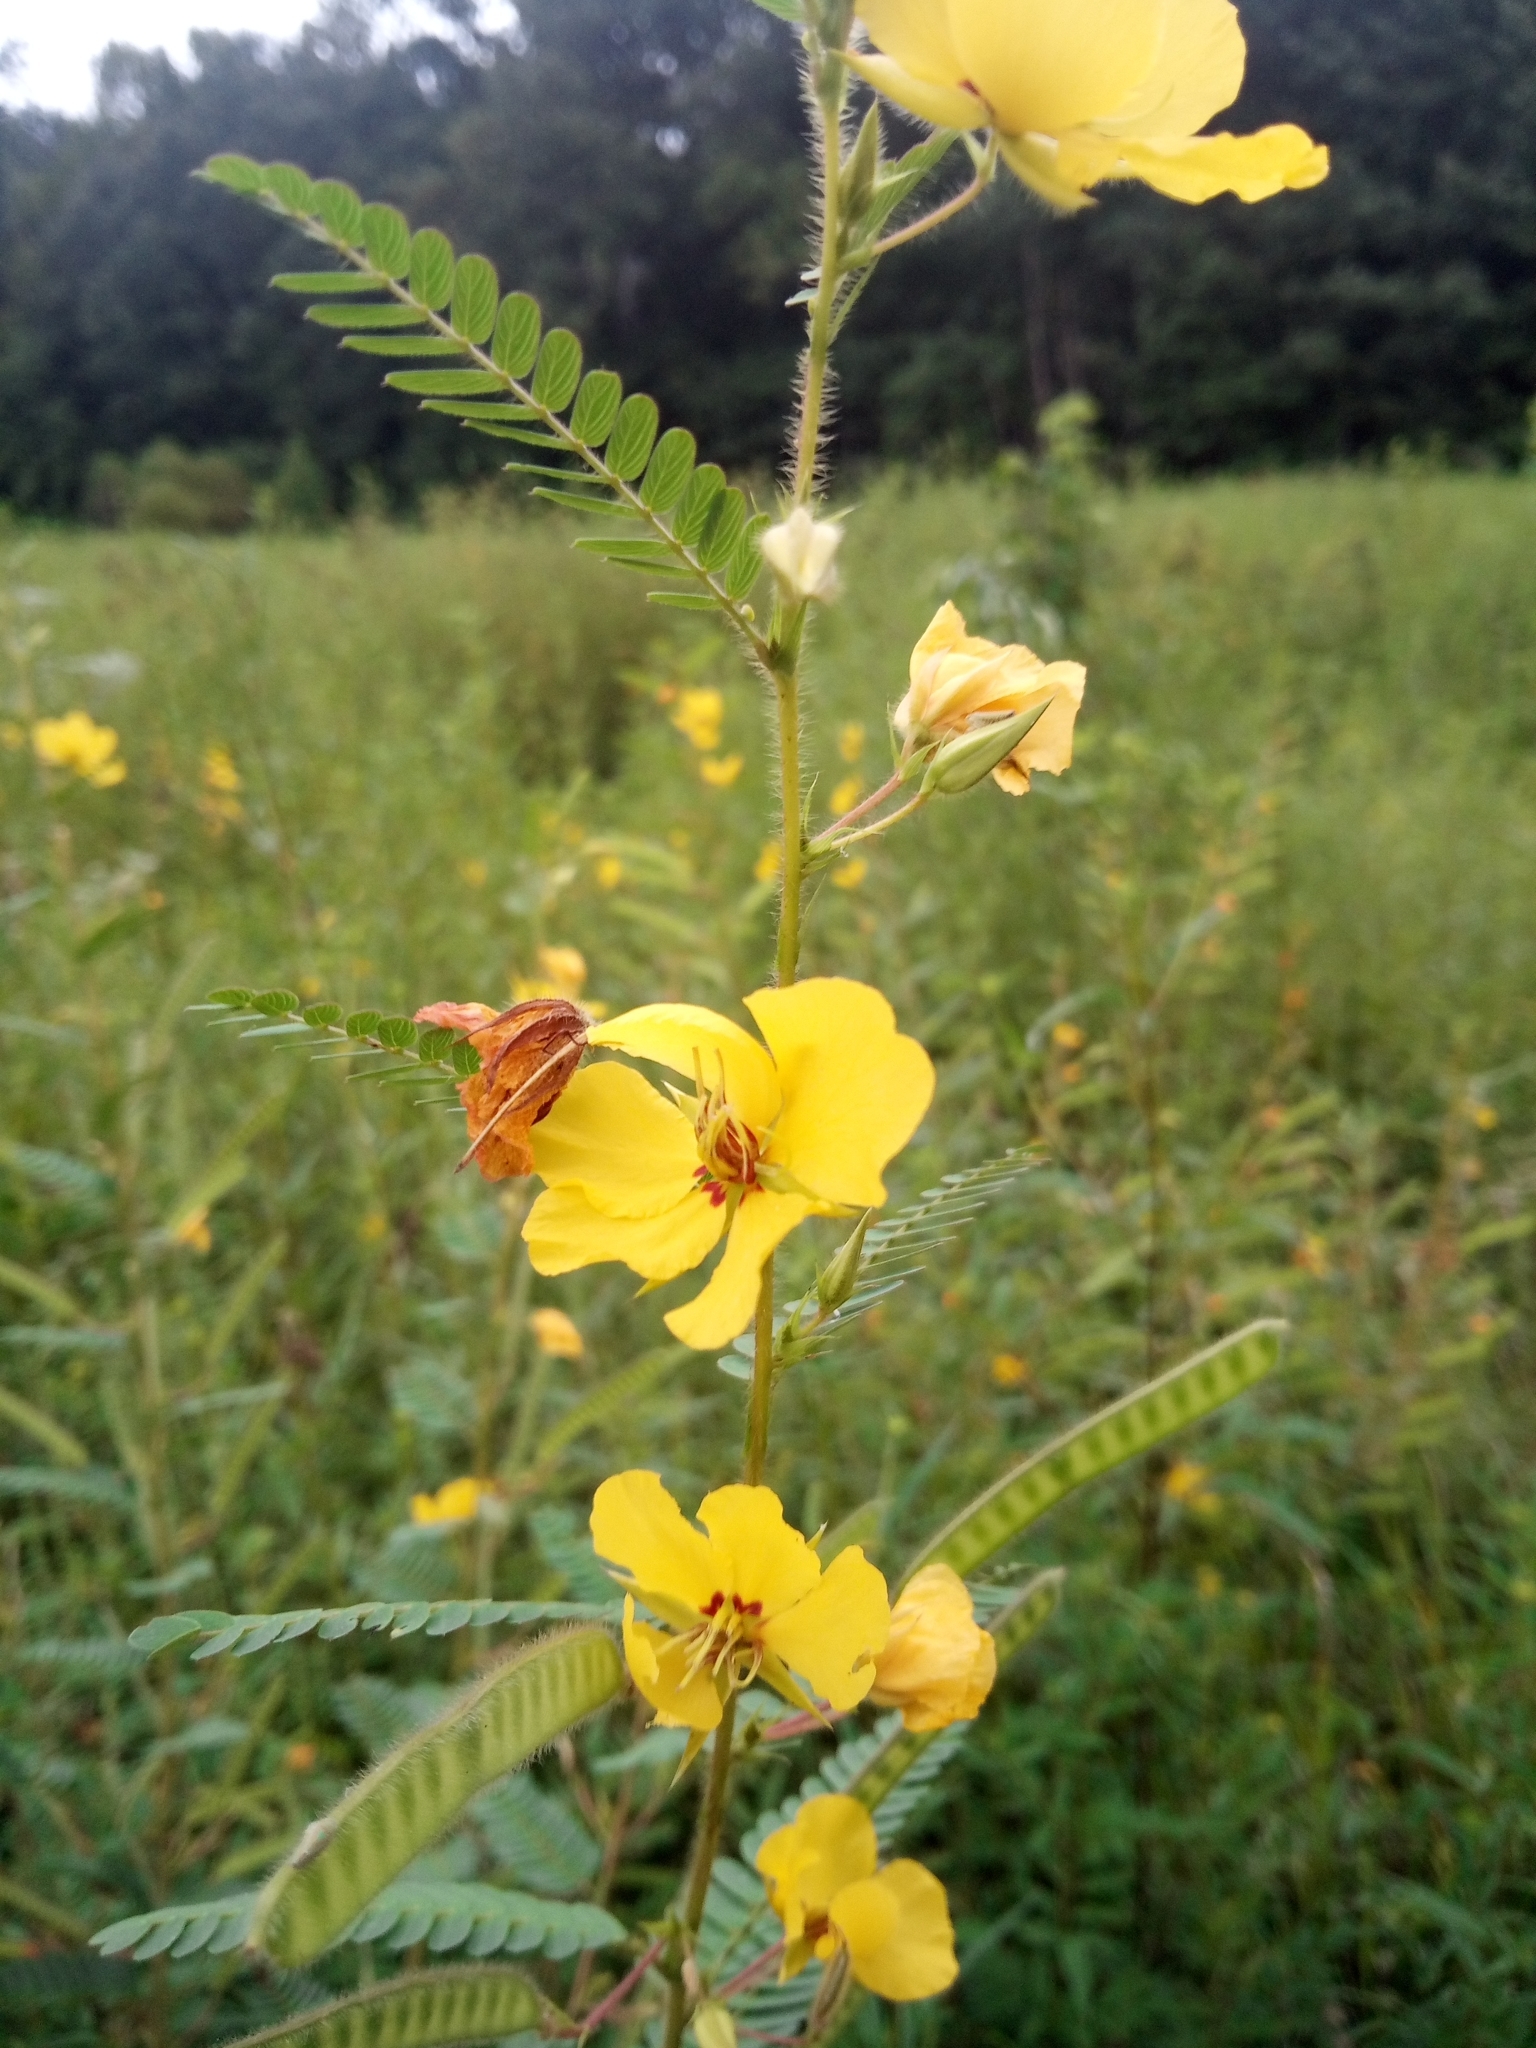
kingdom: Plantae
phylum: Tracheophyta
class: Magnoliopsida
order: Fabales
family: Fabaceae
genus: Chamaecrista
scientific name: Chamaecrista fasciculata
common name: Golden cassia
